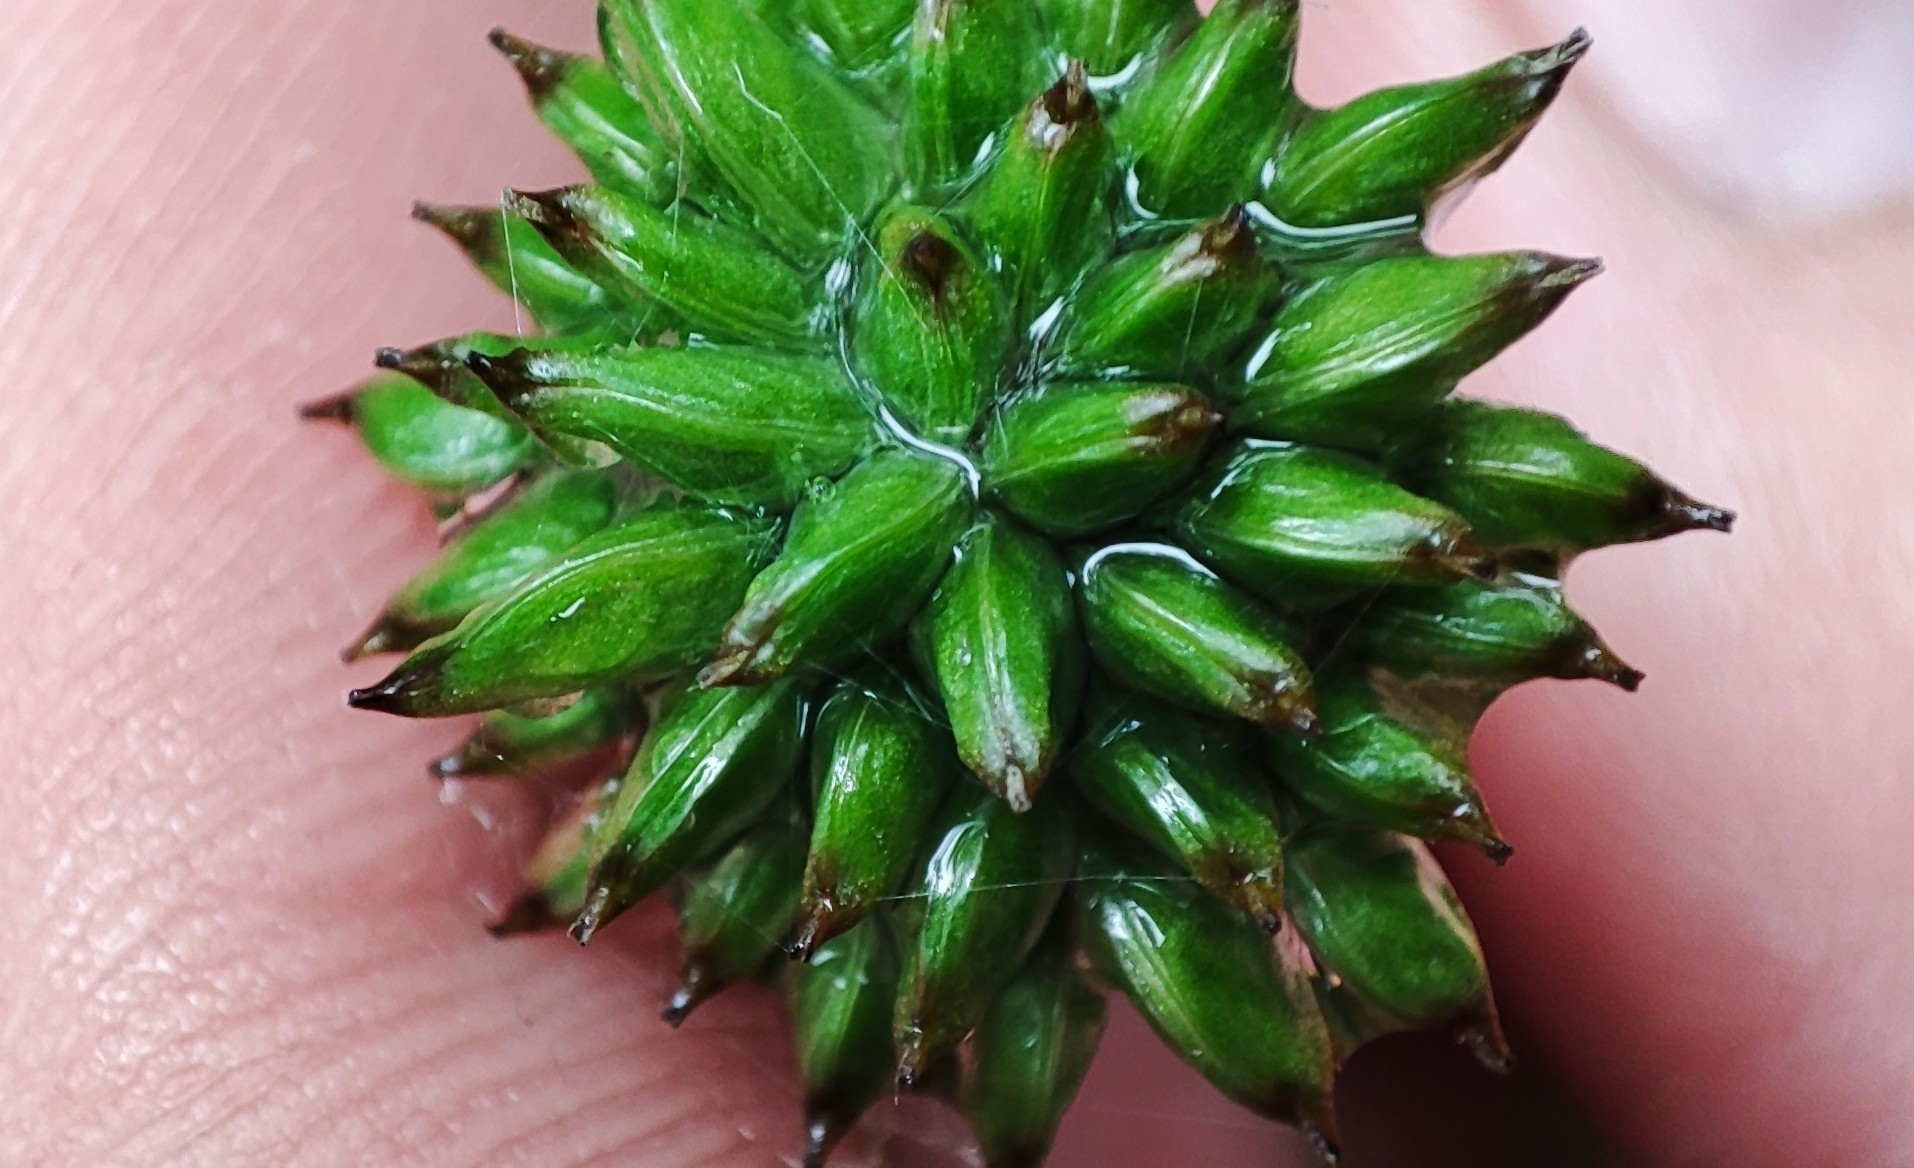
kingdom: Plantae
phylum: Tracheophyta
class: Magnoliopsida
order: Ranunculales
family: Ranunculaceae
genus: Trollius
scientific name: Trollius europaeus
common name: European globeflower
